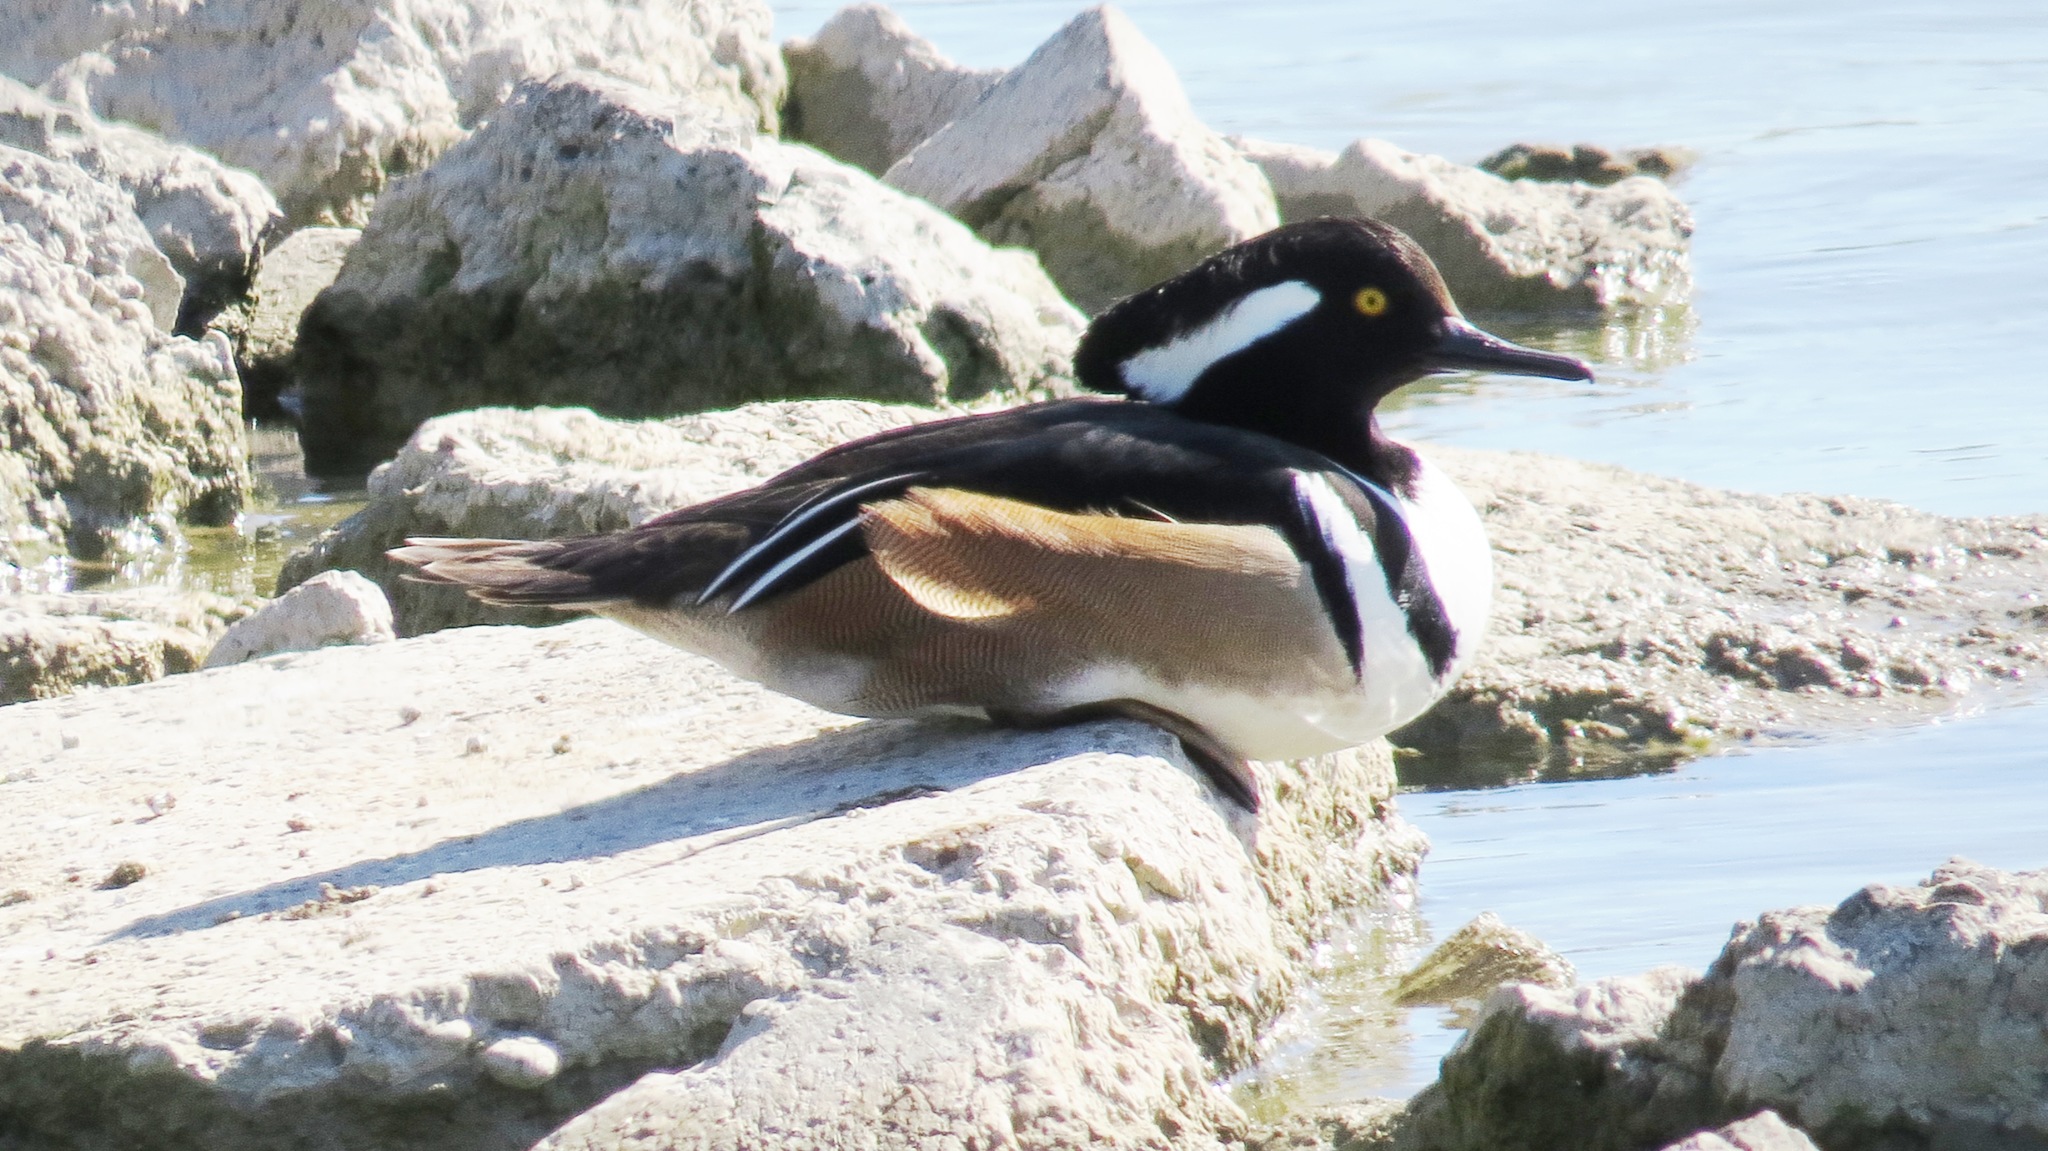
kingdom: Animalia
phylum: Chordata
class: Aves
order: Anseriformes
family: Anatidae
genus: Lophodytes
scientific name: Lophodytes cucullatus
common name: Hooded merganser
